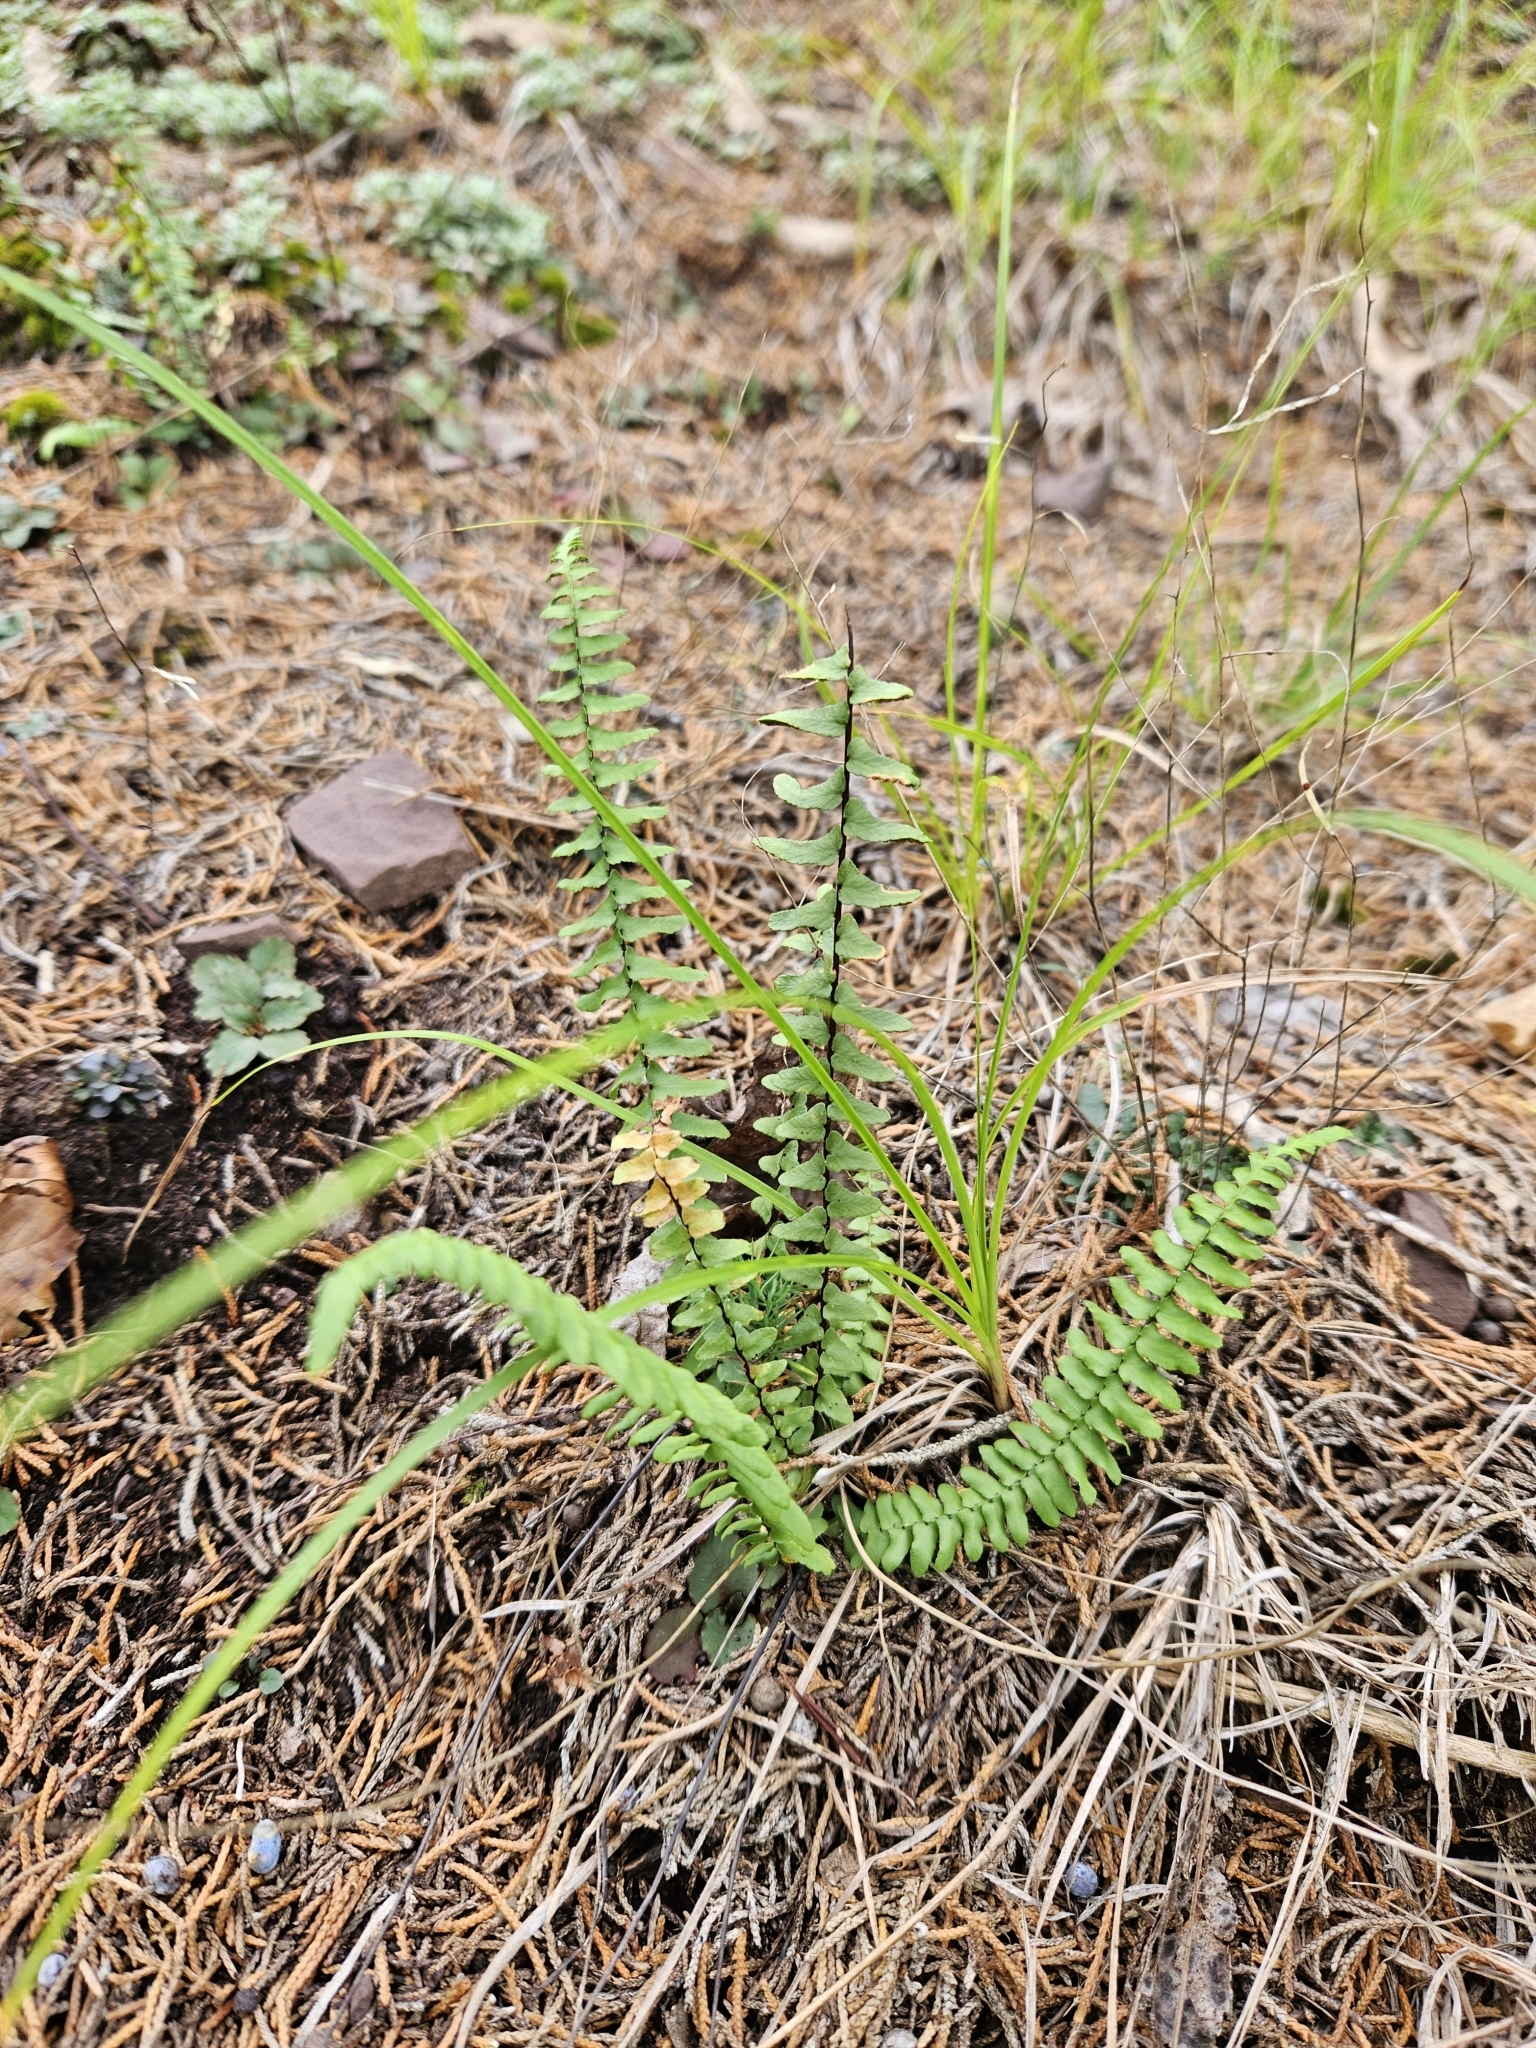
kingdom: Plantae
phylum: Tracheophyta
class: Polypodiopsida
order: Polypodiales
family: Aspleniaceae
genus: Asplenium
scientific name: Asplenium platyneuron
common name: Ebony spleenwort
